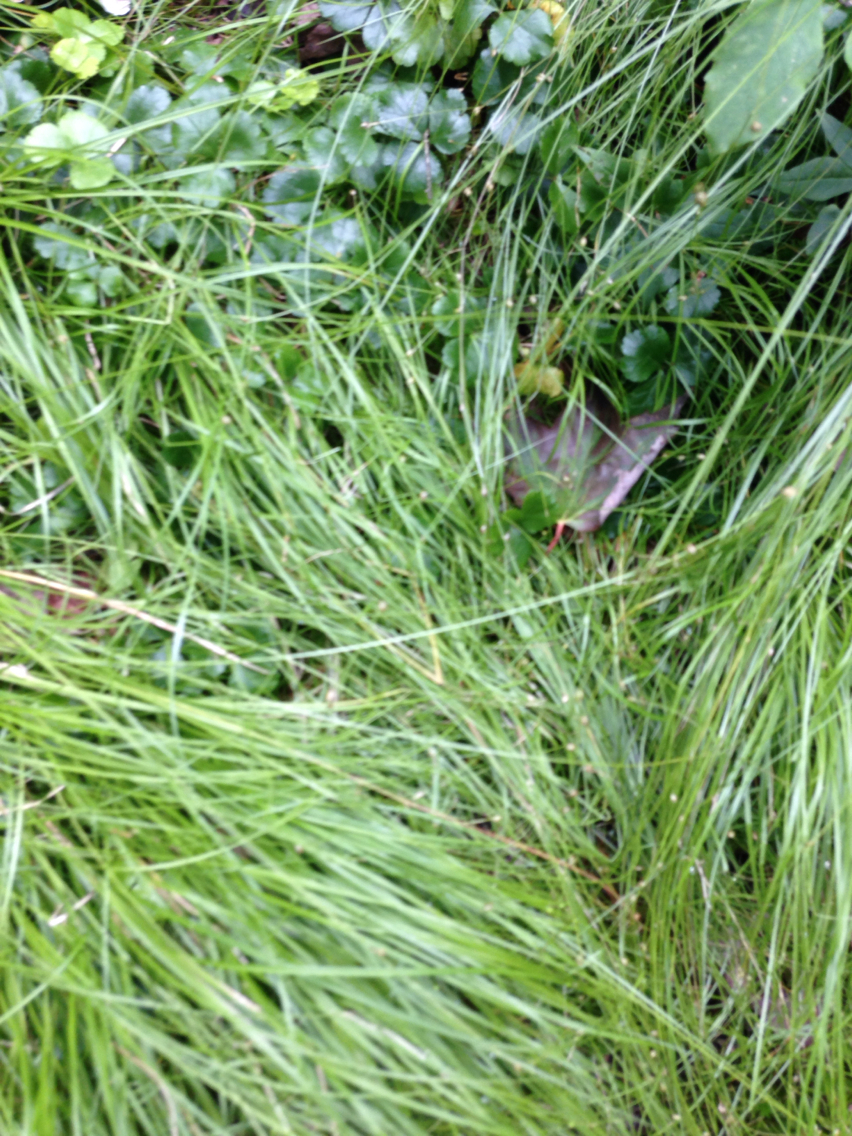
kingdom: Plantae
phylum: Tracheophyta
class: Magnoliopsida
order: Ranunculales
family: Ranunculaceae
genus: Coptis
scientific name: Coptis trifolia
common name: Canker-root
